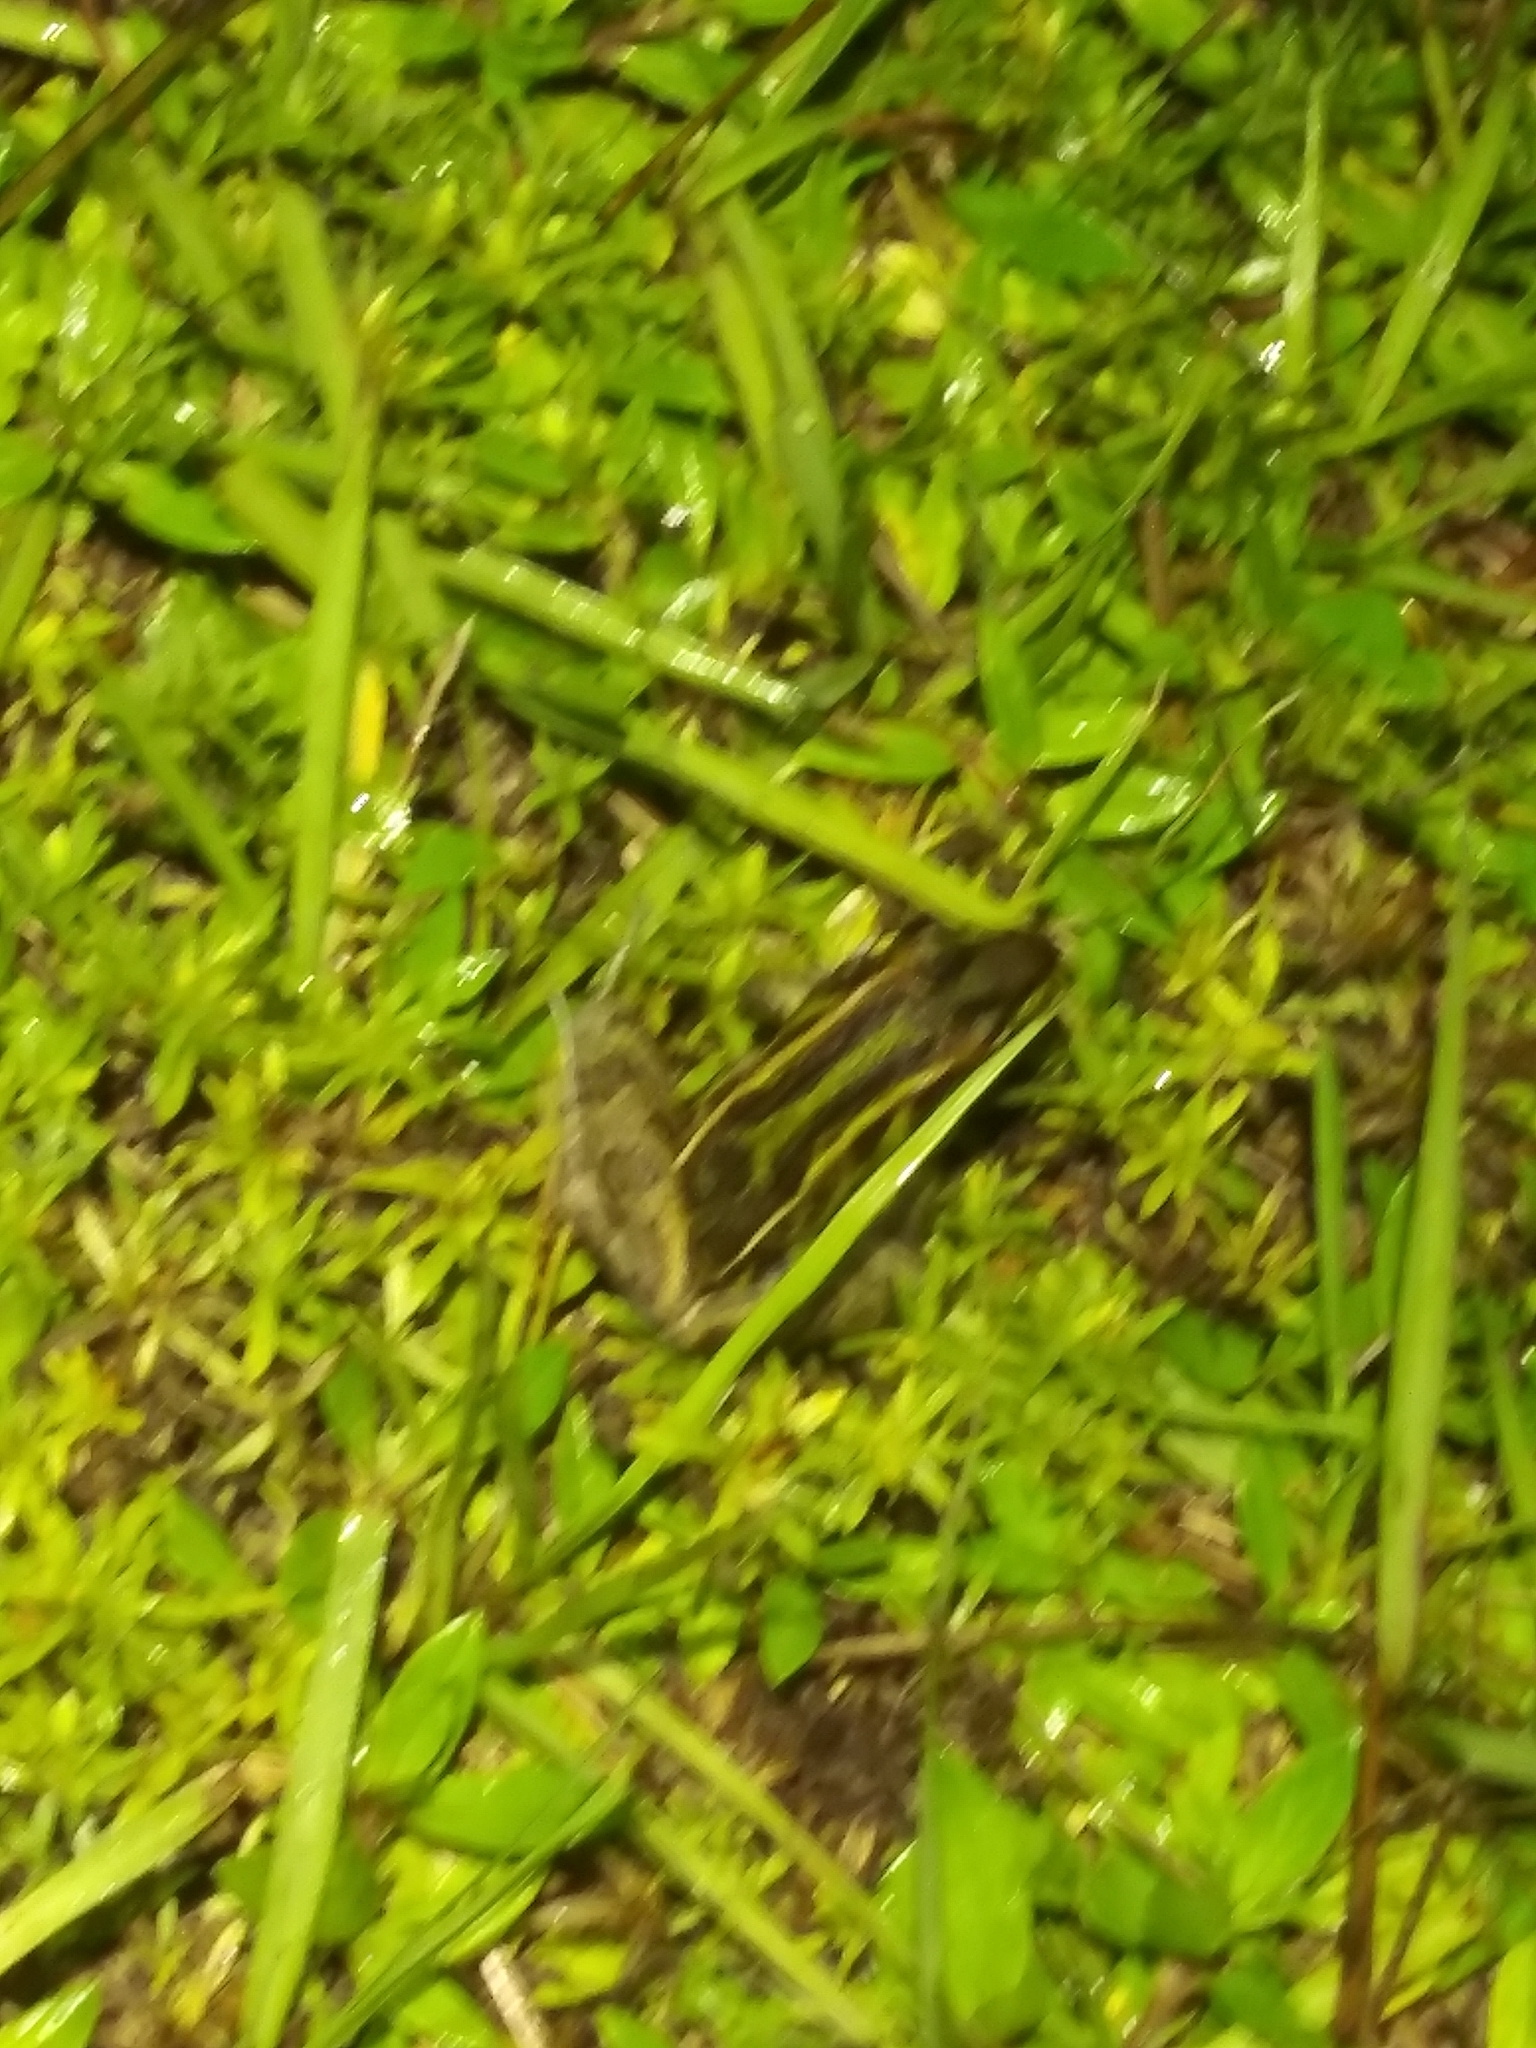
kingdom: Animalia
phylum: Chordata
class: Amphibia
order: Anura
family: Ranidae
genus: Lithobates
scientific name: Lithobates sphenocephalus
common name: Southern leopard frog
